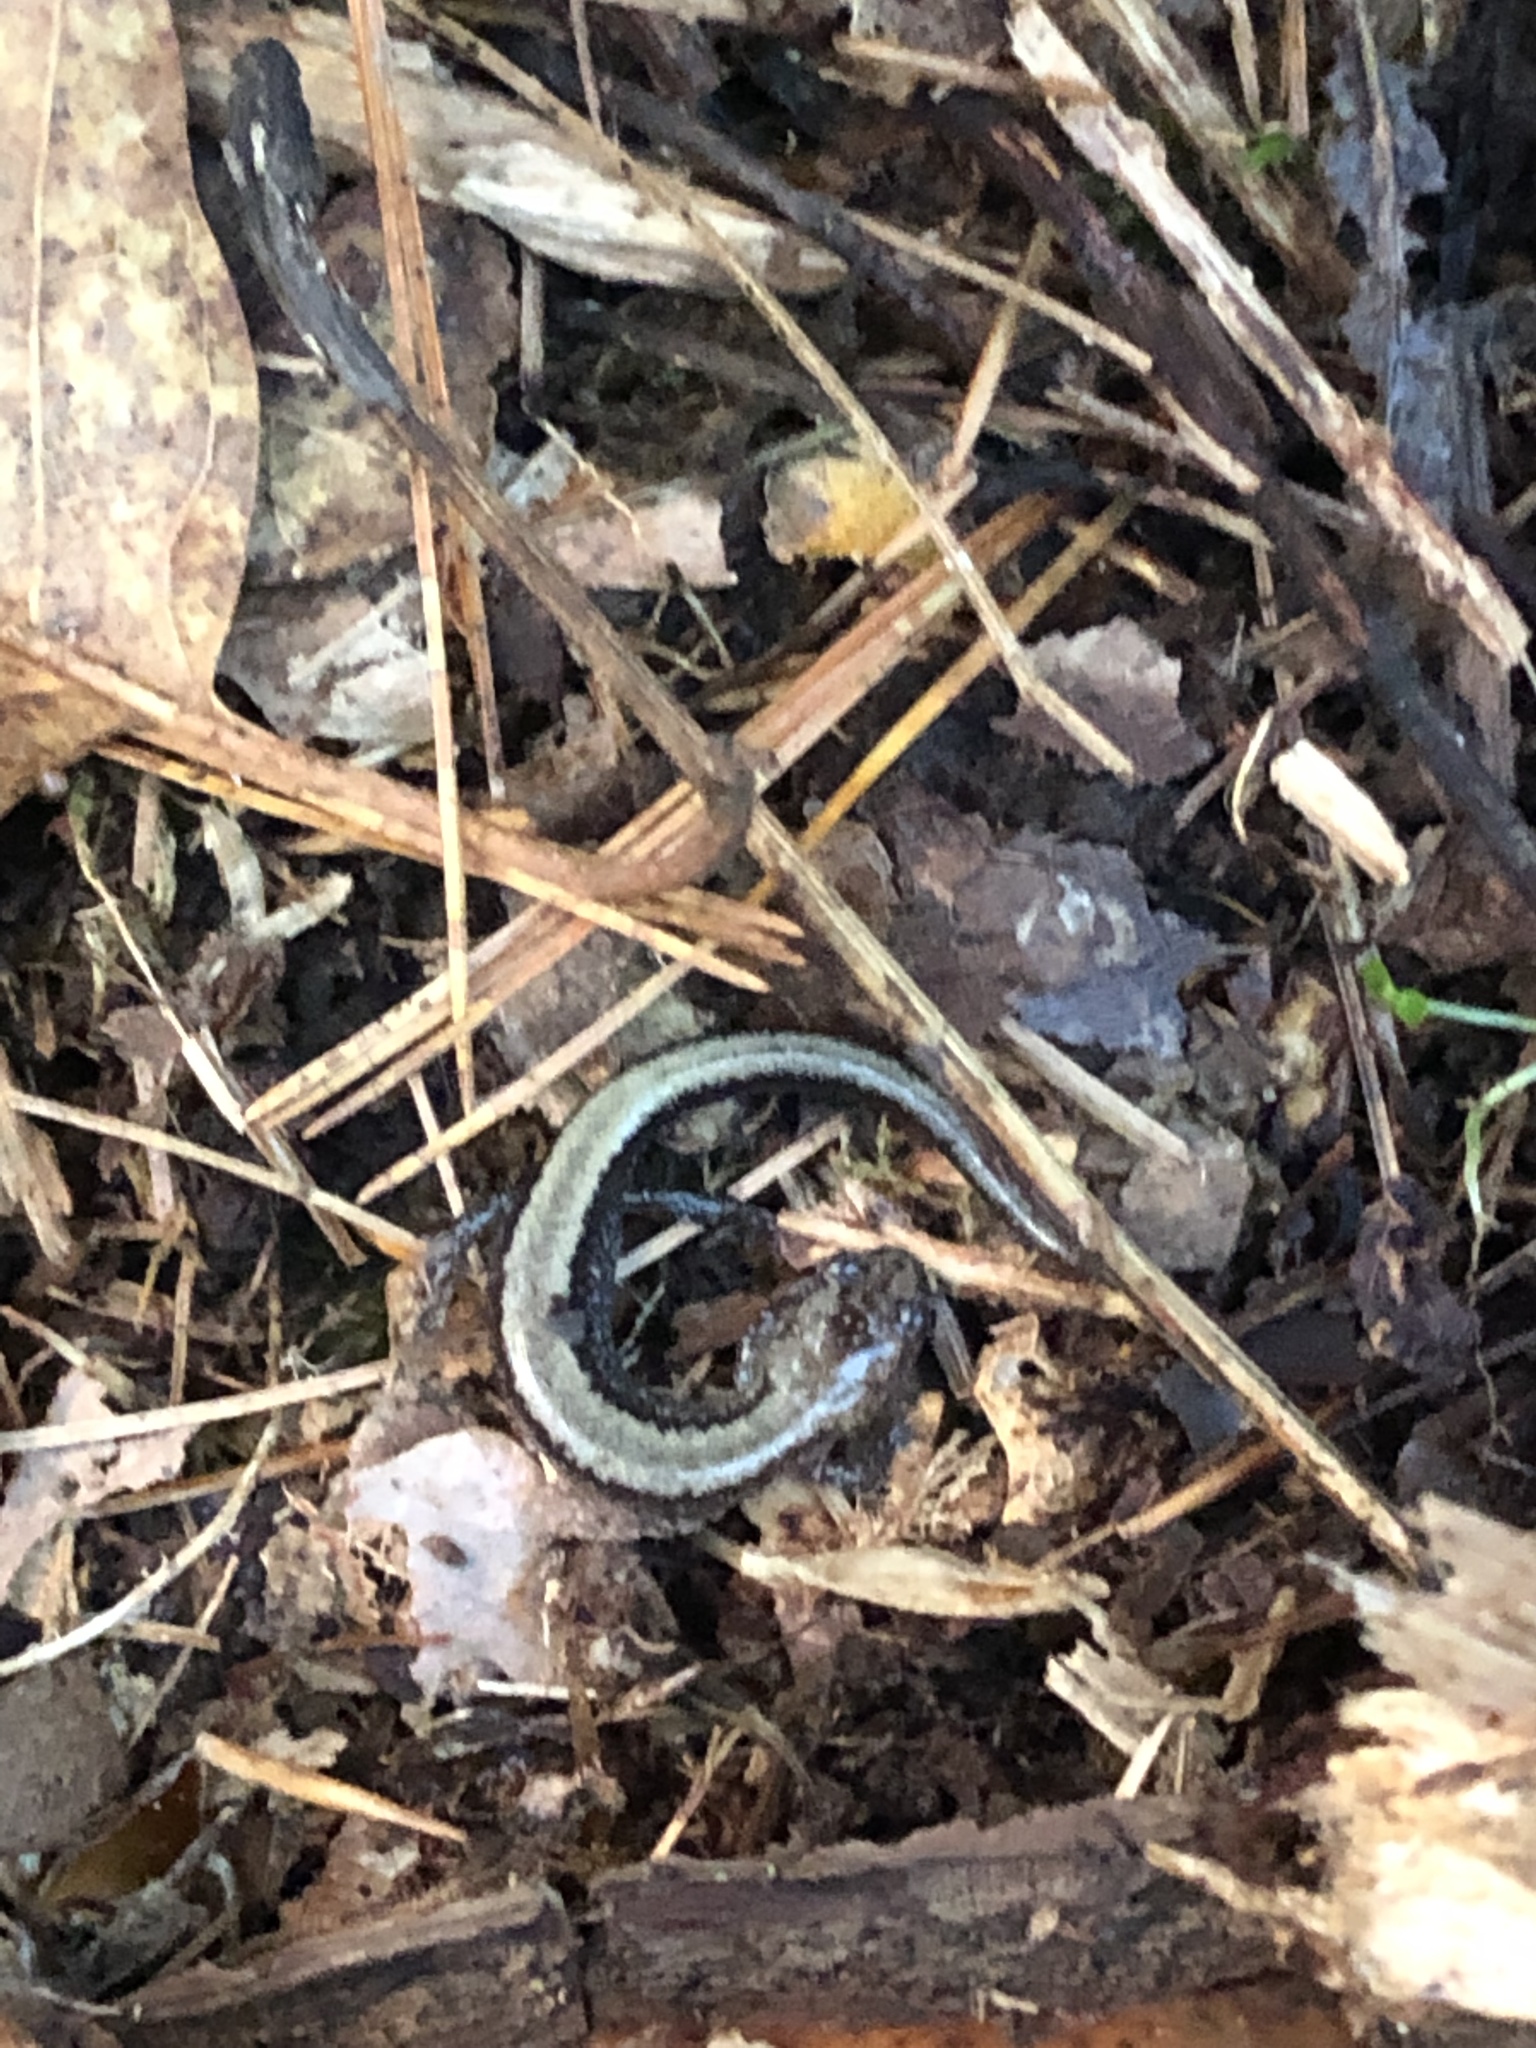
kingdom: Animalia
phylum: Chordata
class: Amphibia
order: Caudata
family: Plethodontidae
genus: Plethodon
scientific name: Plethodon cinereus
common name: Redback salamander
